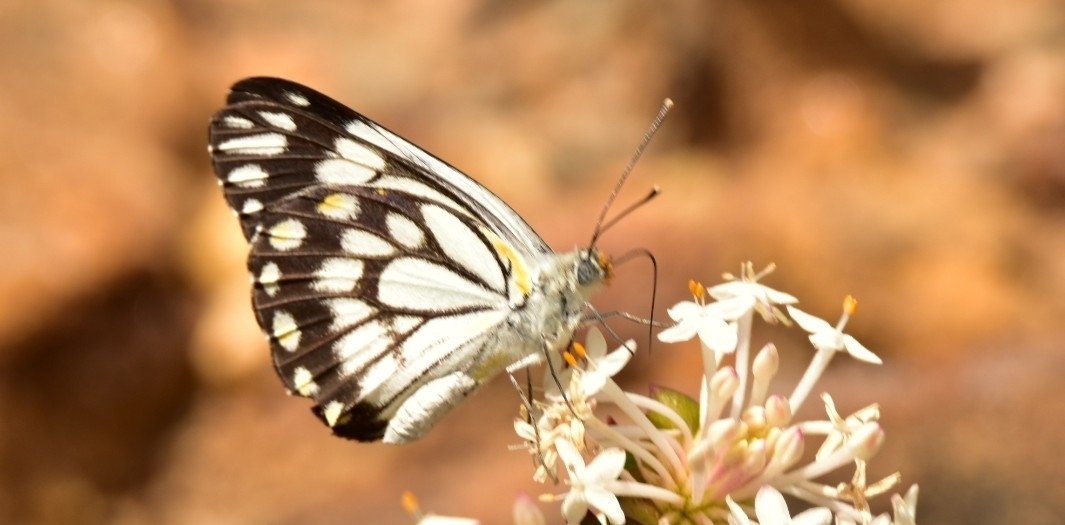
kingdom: Animalia
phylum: Arthropoda
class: Insecta
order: Lepidoptera
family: Pieridae
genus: Belenois
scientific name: Belenois java
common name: Caper white
